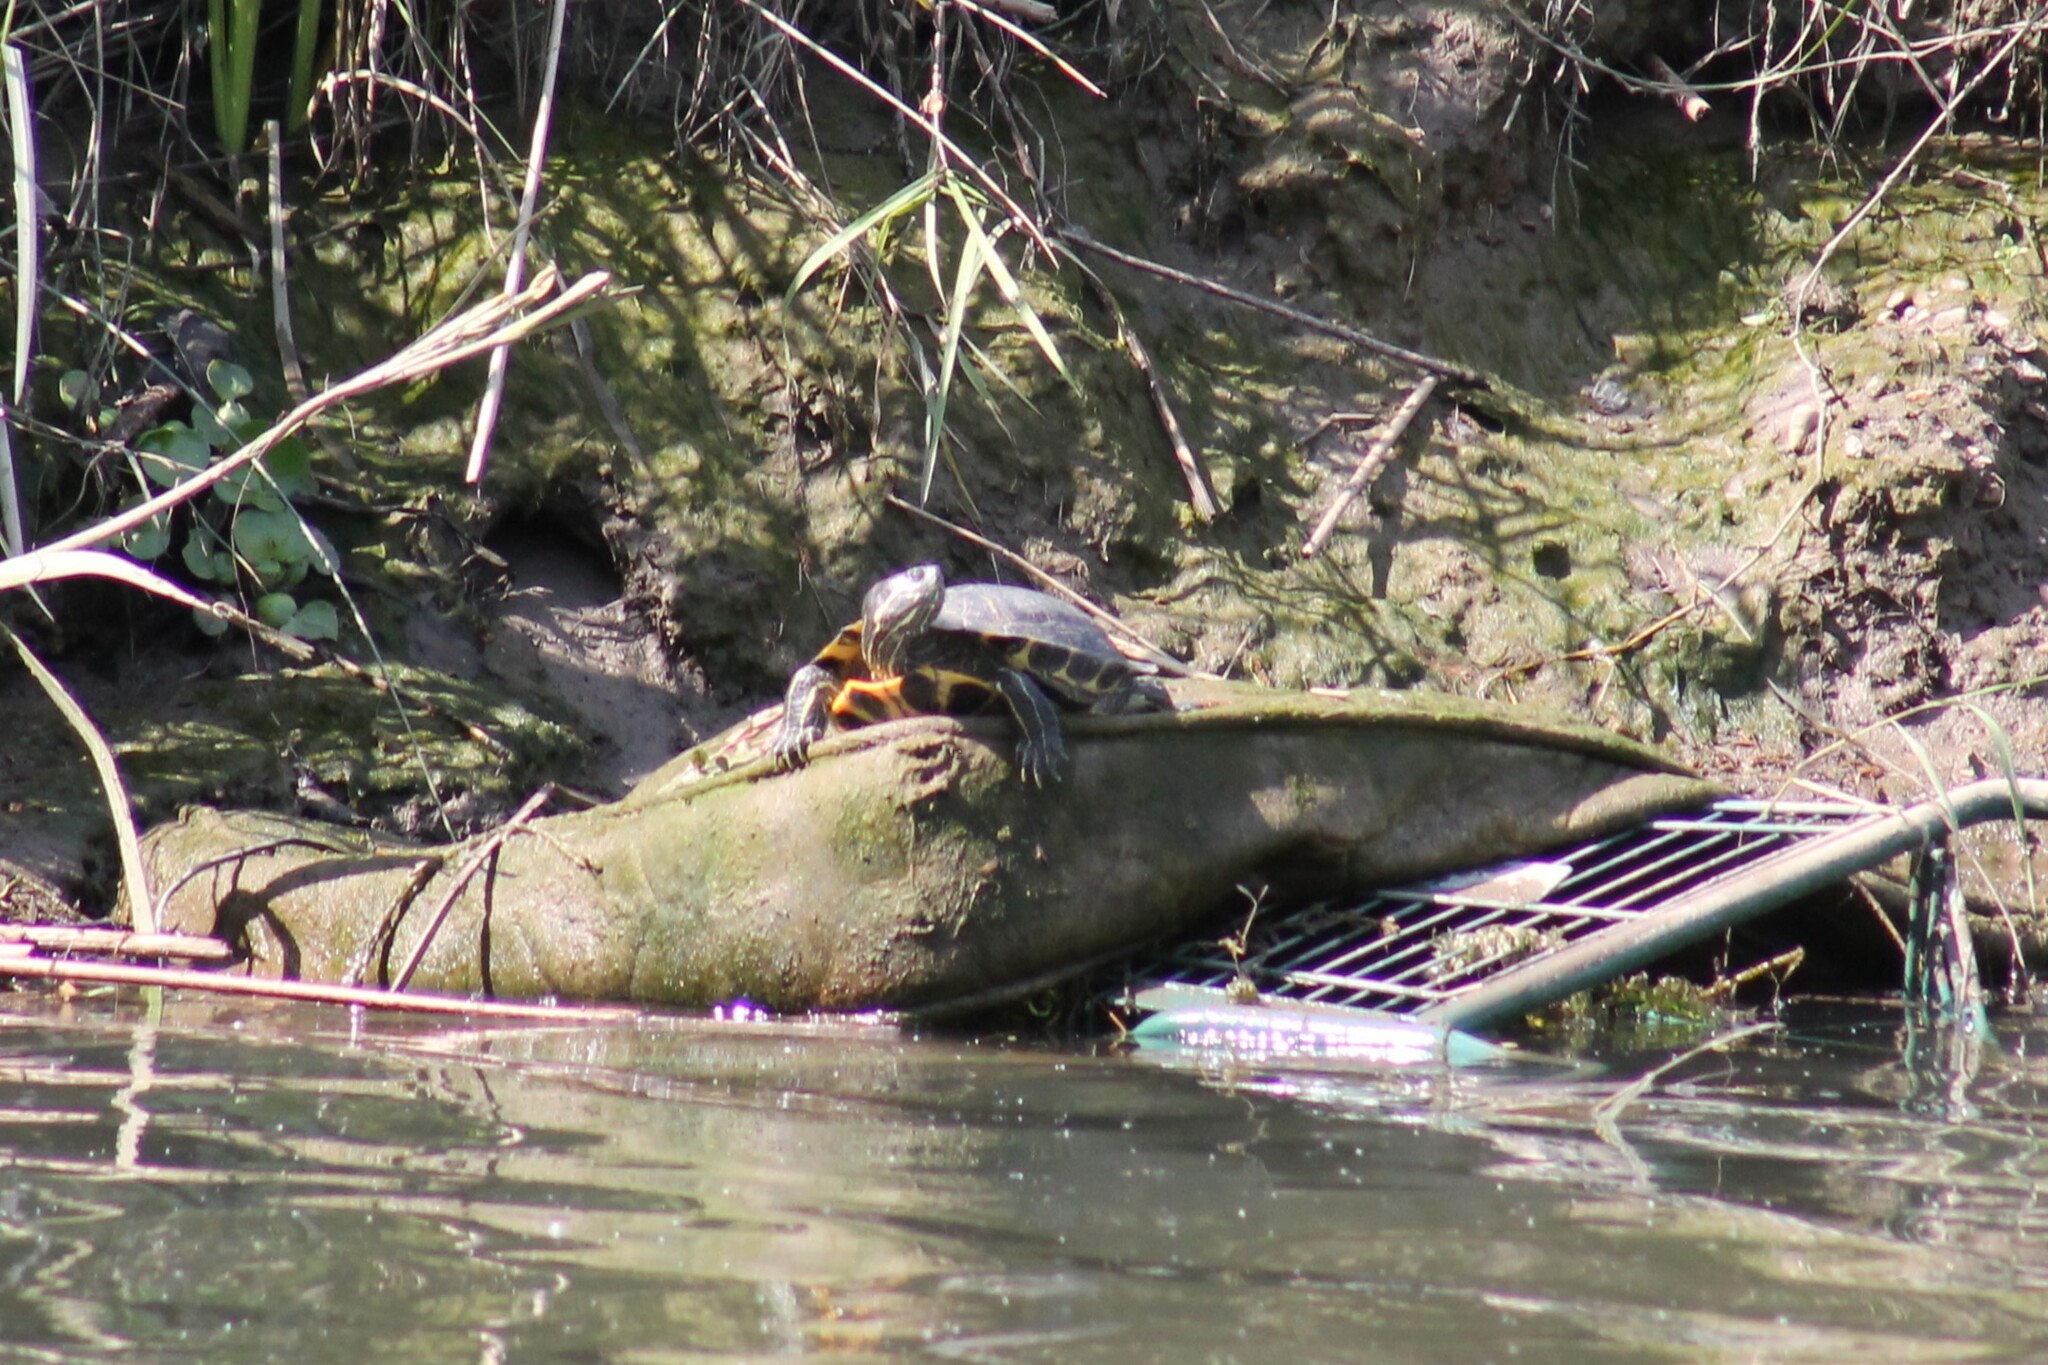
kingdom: Animalia
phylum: Chordata
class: Testudines
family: Emydidae
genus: Trachemys
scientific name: Trachemys scripta
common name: Slider
